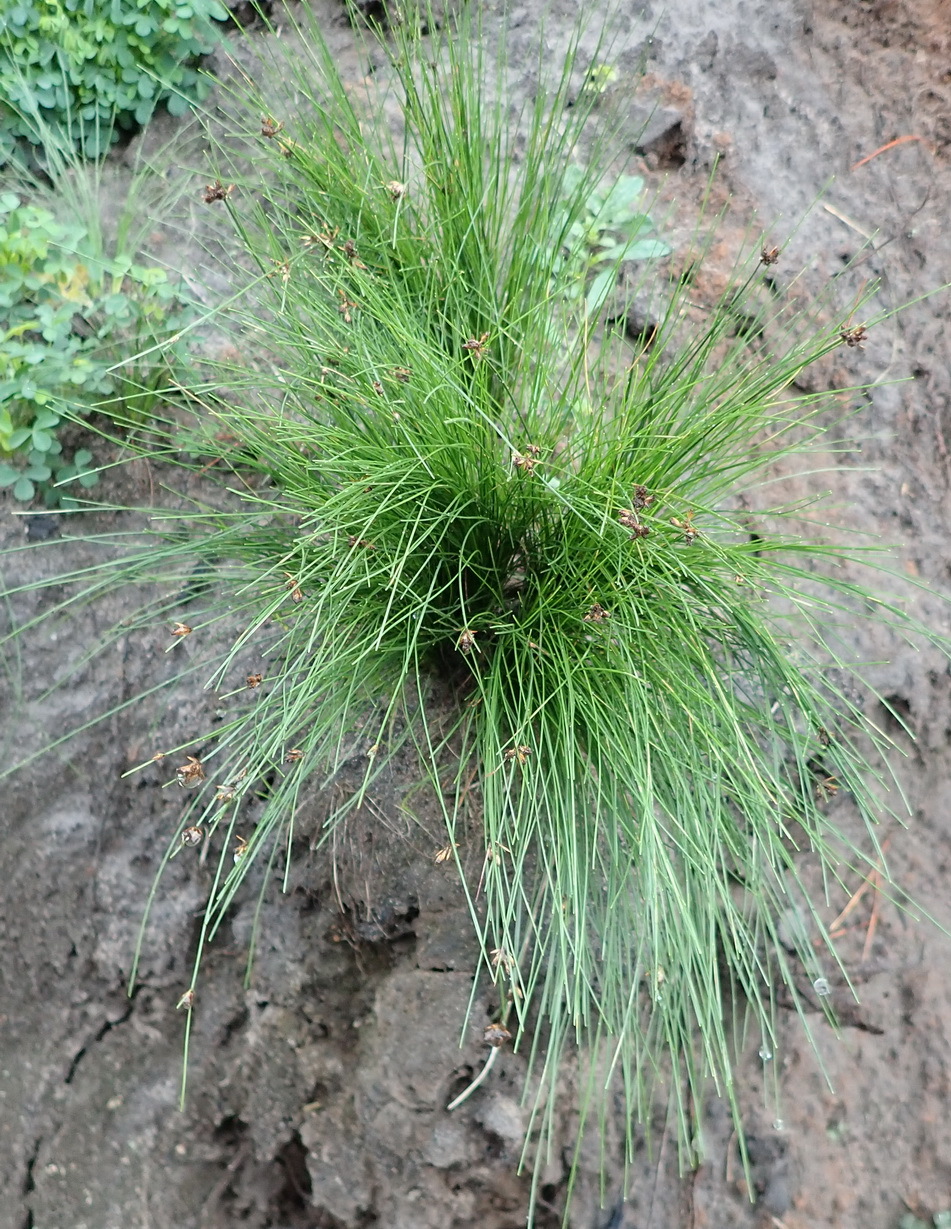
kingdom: Plantae
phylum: Tracheophyta
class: Liliopsida
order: Poales
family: Cyperaceae
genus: Ficinia
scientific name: Ficinia acuminata
